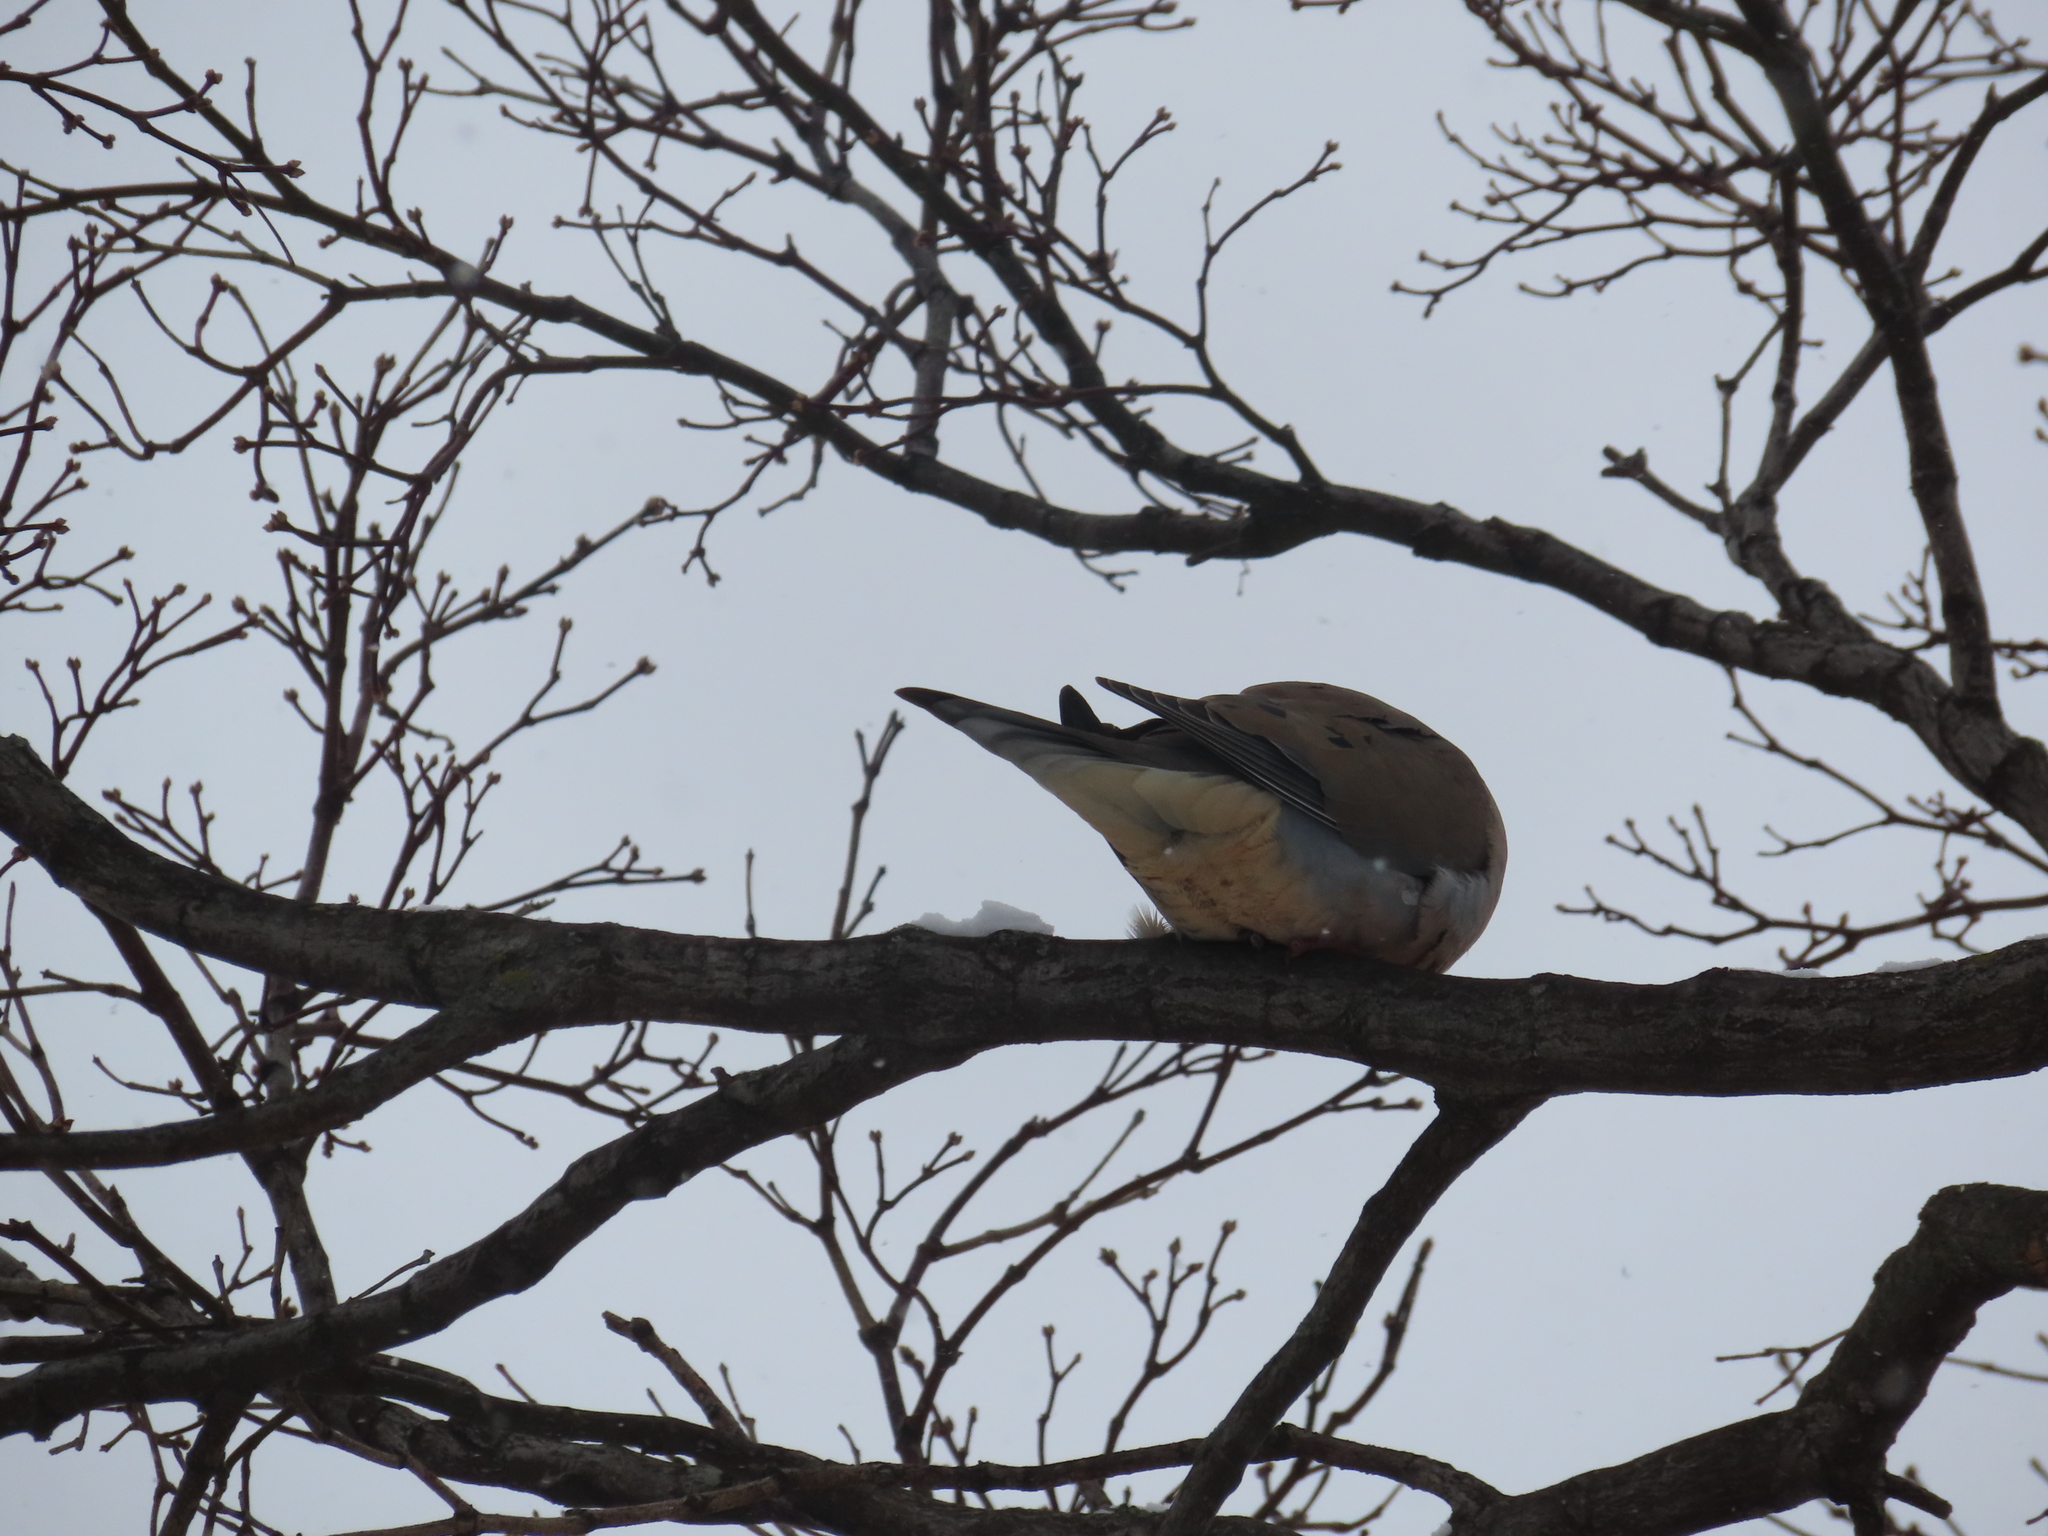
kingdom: Animalia
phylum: Chordata
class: Aves
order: Columbiformes
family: Columbidae
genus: Zenaida
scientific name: Zenaida macroura
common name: Mourning dove
